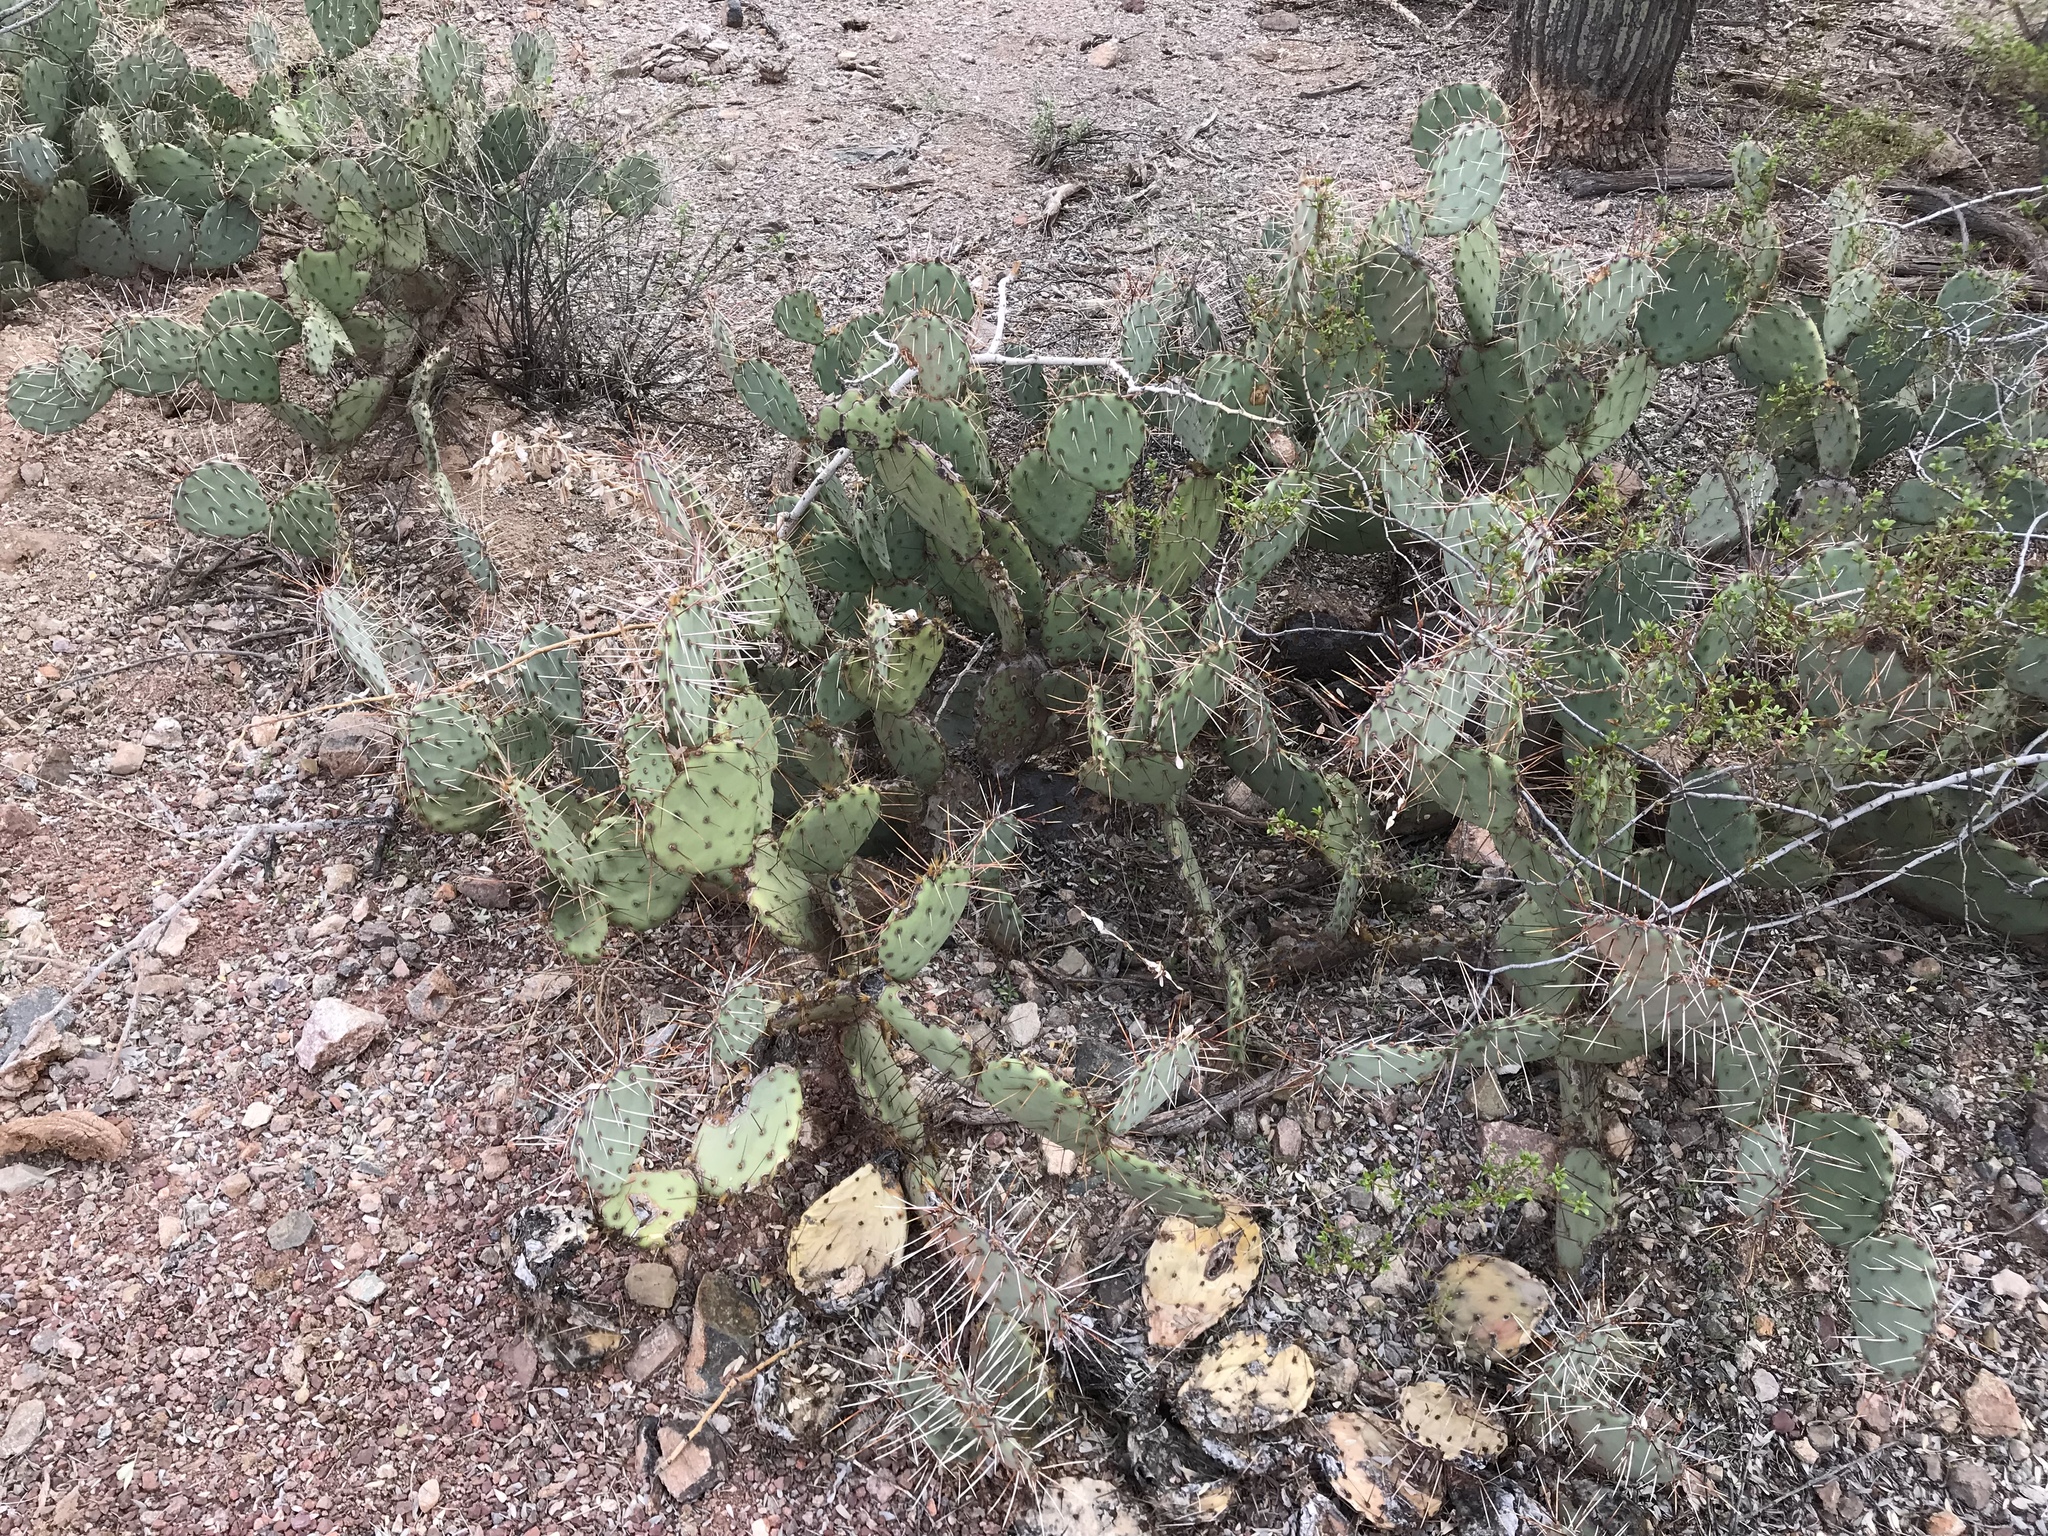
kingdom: Plantae
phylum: Tracheophyta
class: Magnoliopsida
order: Caryophyllales
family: Cactaceae
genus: Opuntia
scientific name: Opuntia phaeacantha
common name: New mexico prickly-pear
